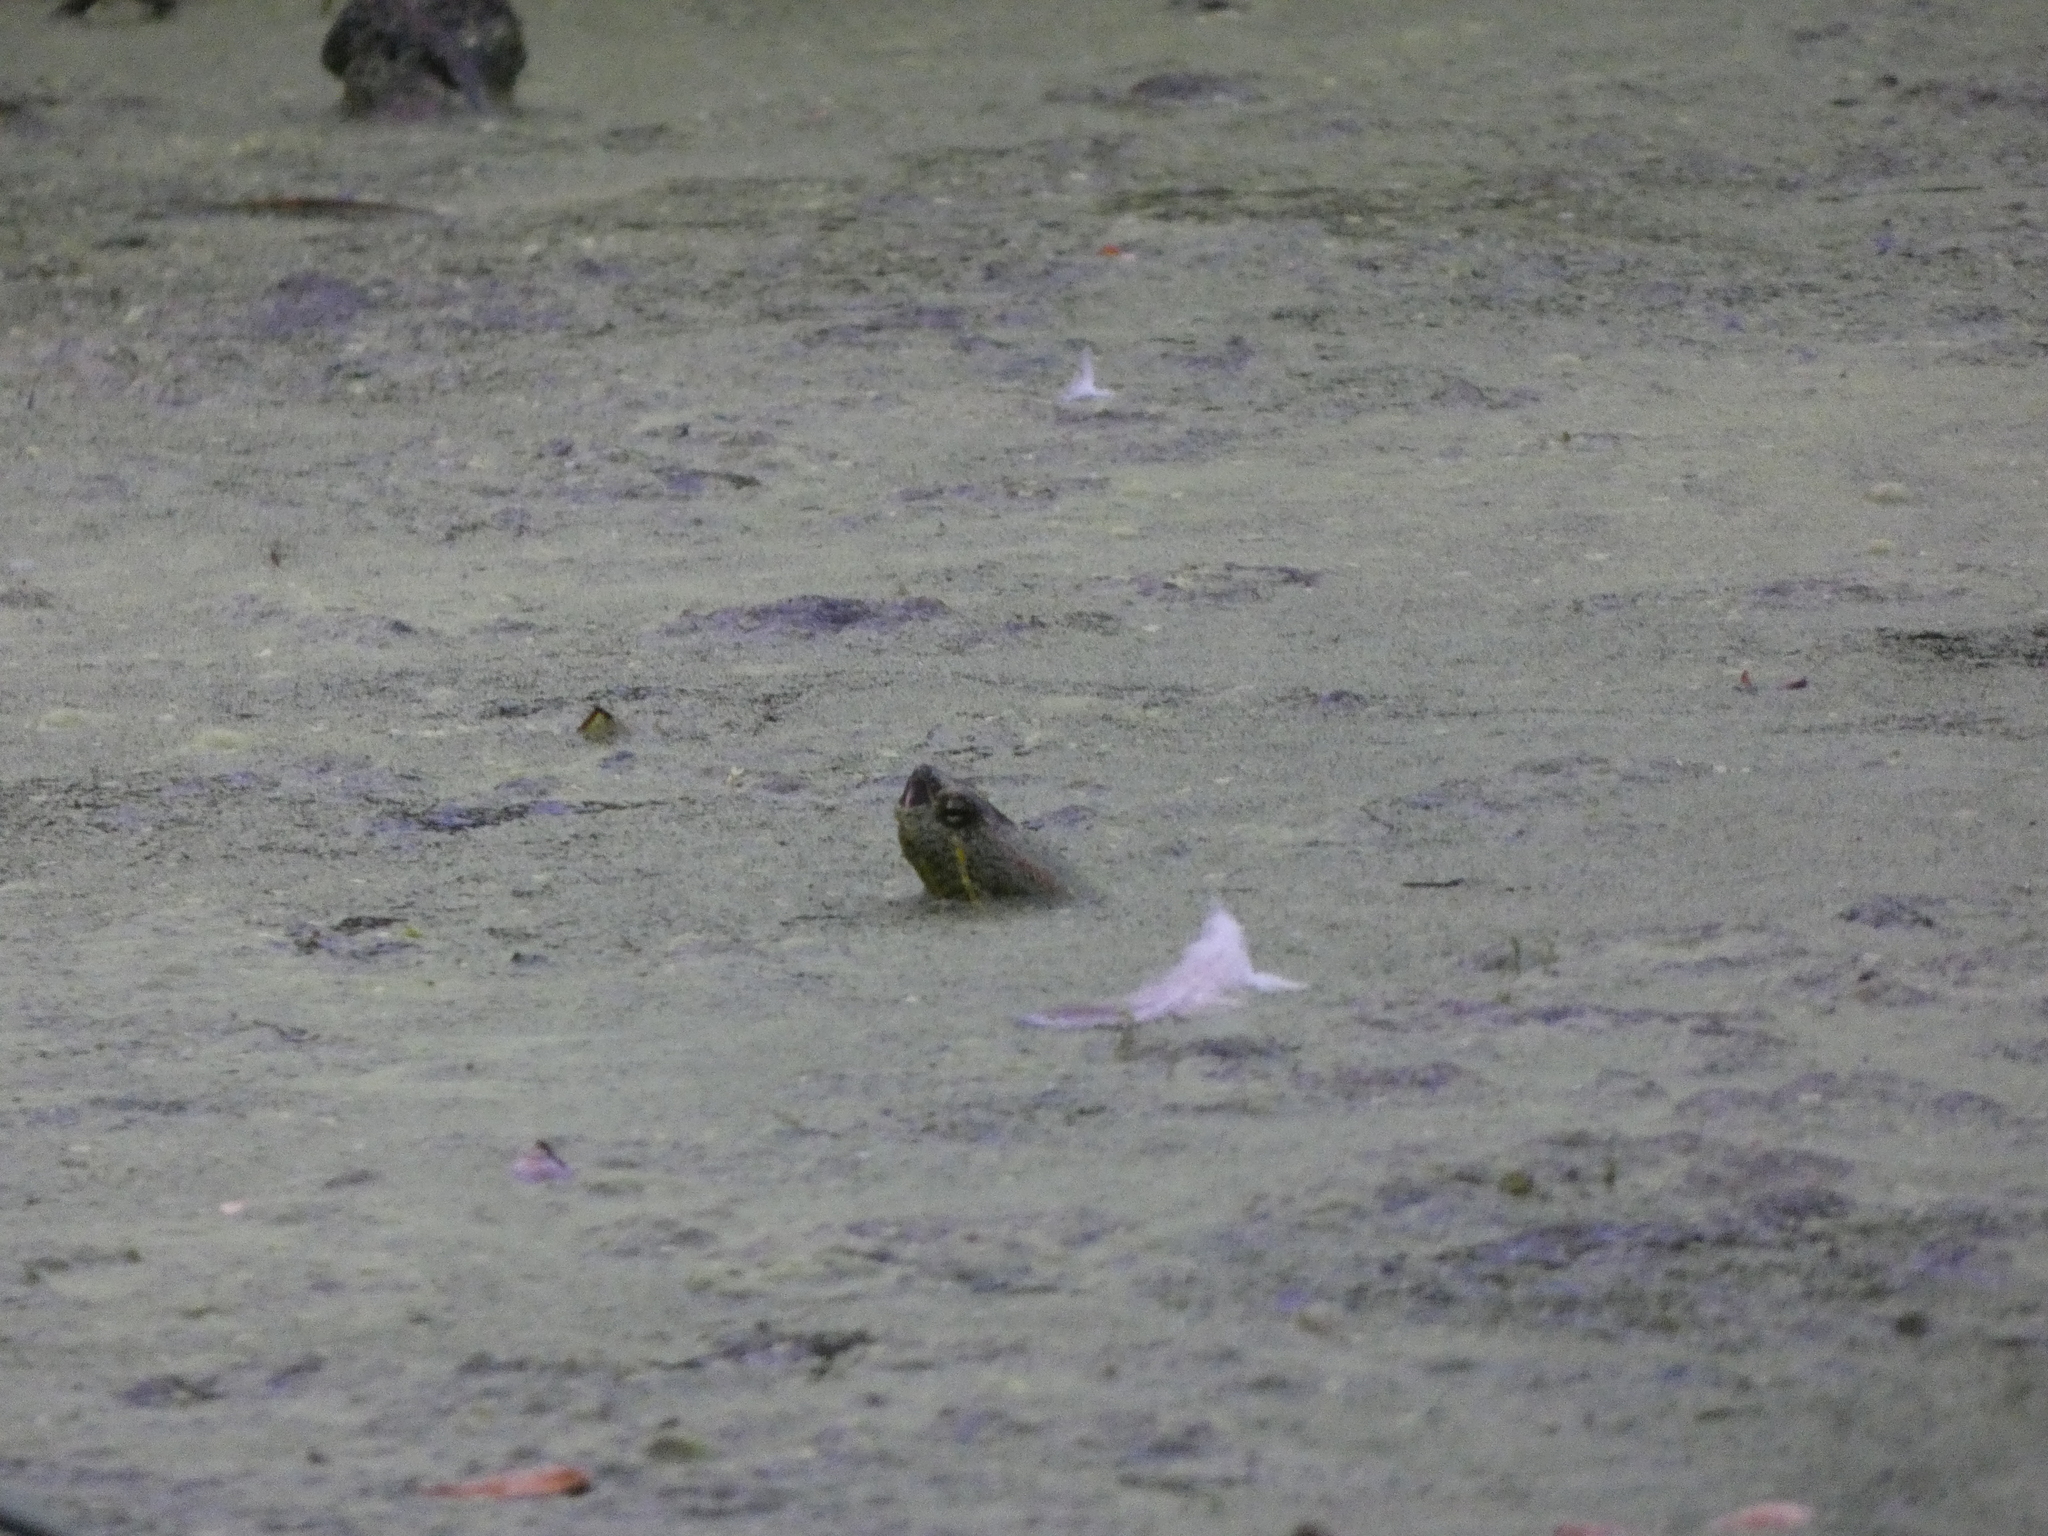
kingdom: Animalia
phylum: Chordata
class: Testudines
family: Emydidae
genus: Trachemys
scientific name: Trachemys scripta
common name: Slider
